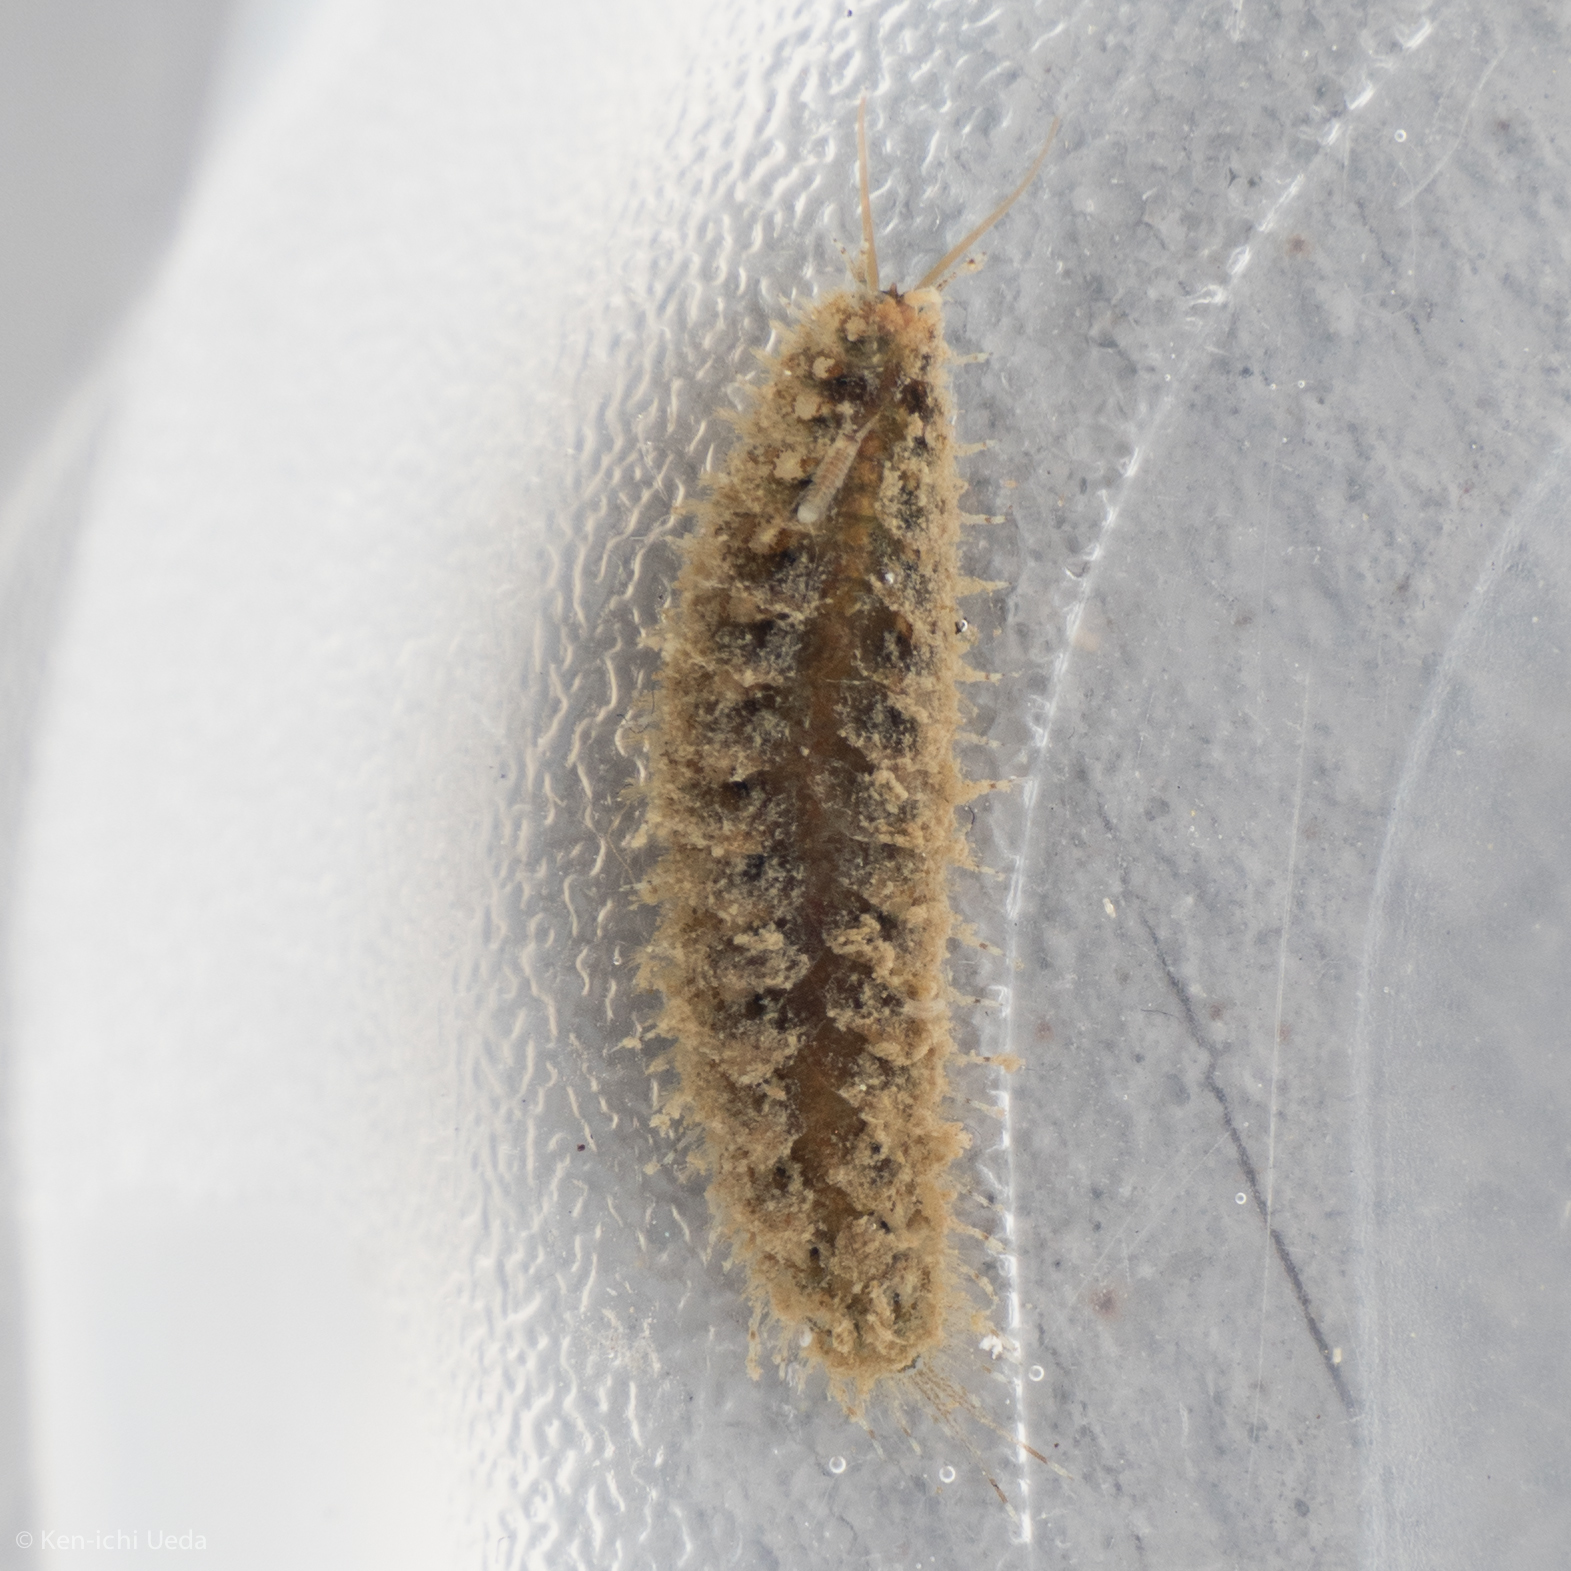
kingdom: Animalia
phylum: Annelida
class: Polychaeta
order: Phyllodocida
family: Polynoidae
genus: Harmothoe
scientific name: Harmothoe imbricata
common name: Fifteen-scaled worm
